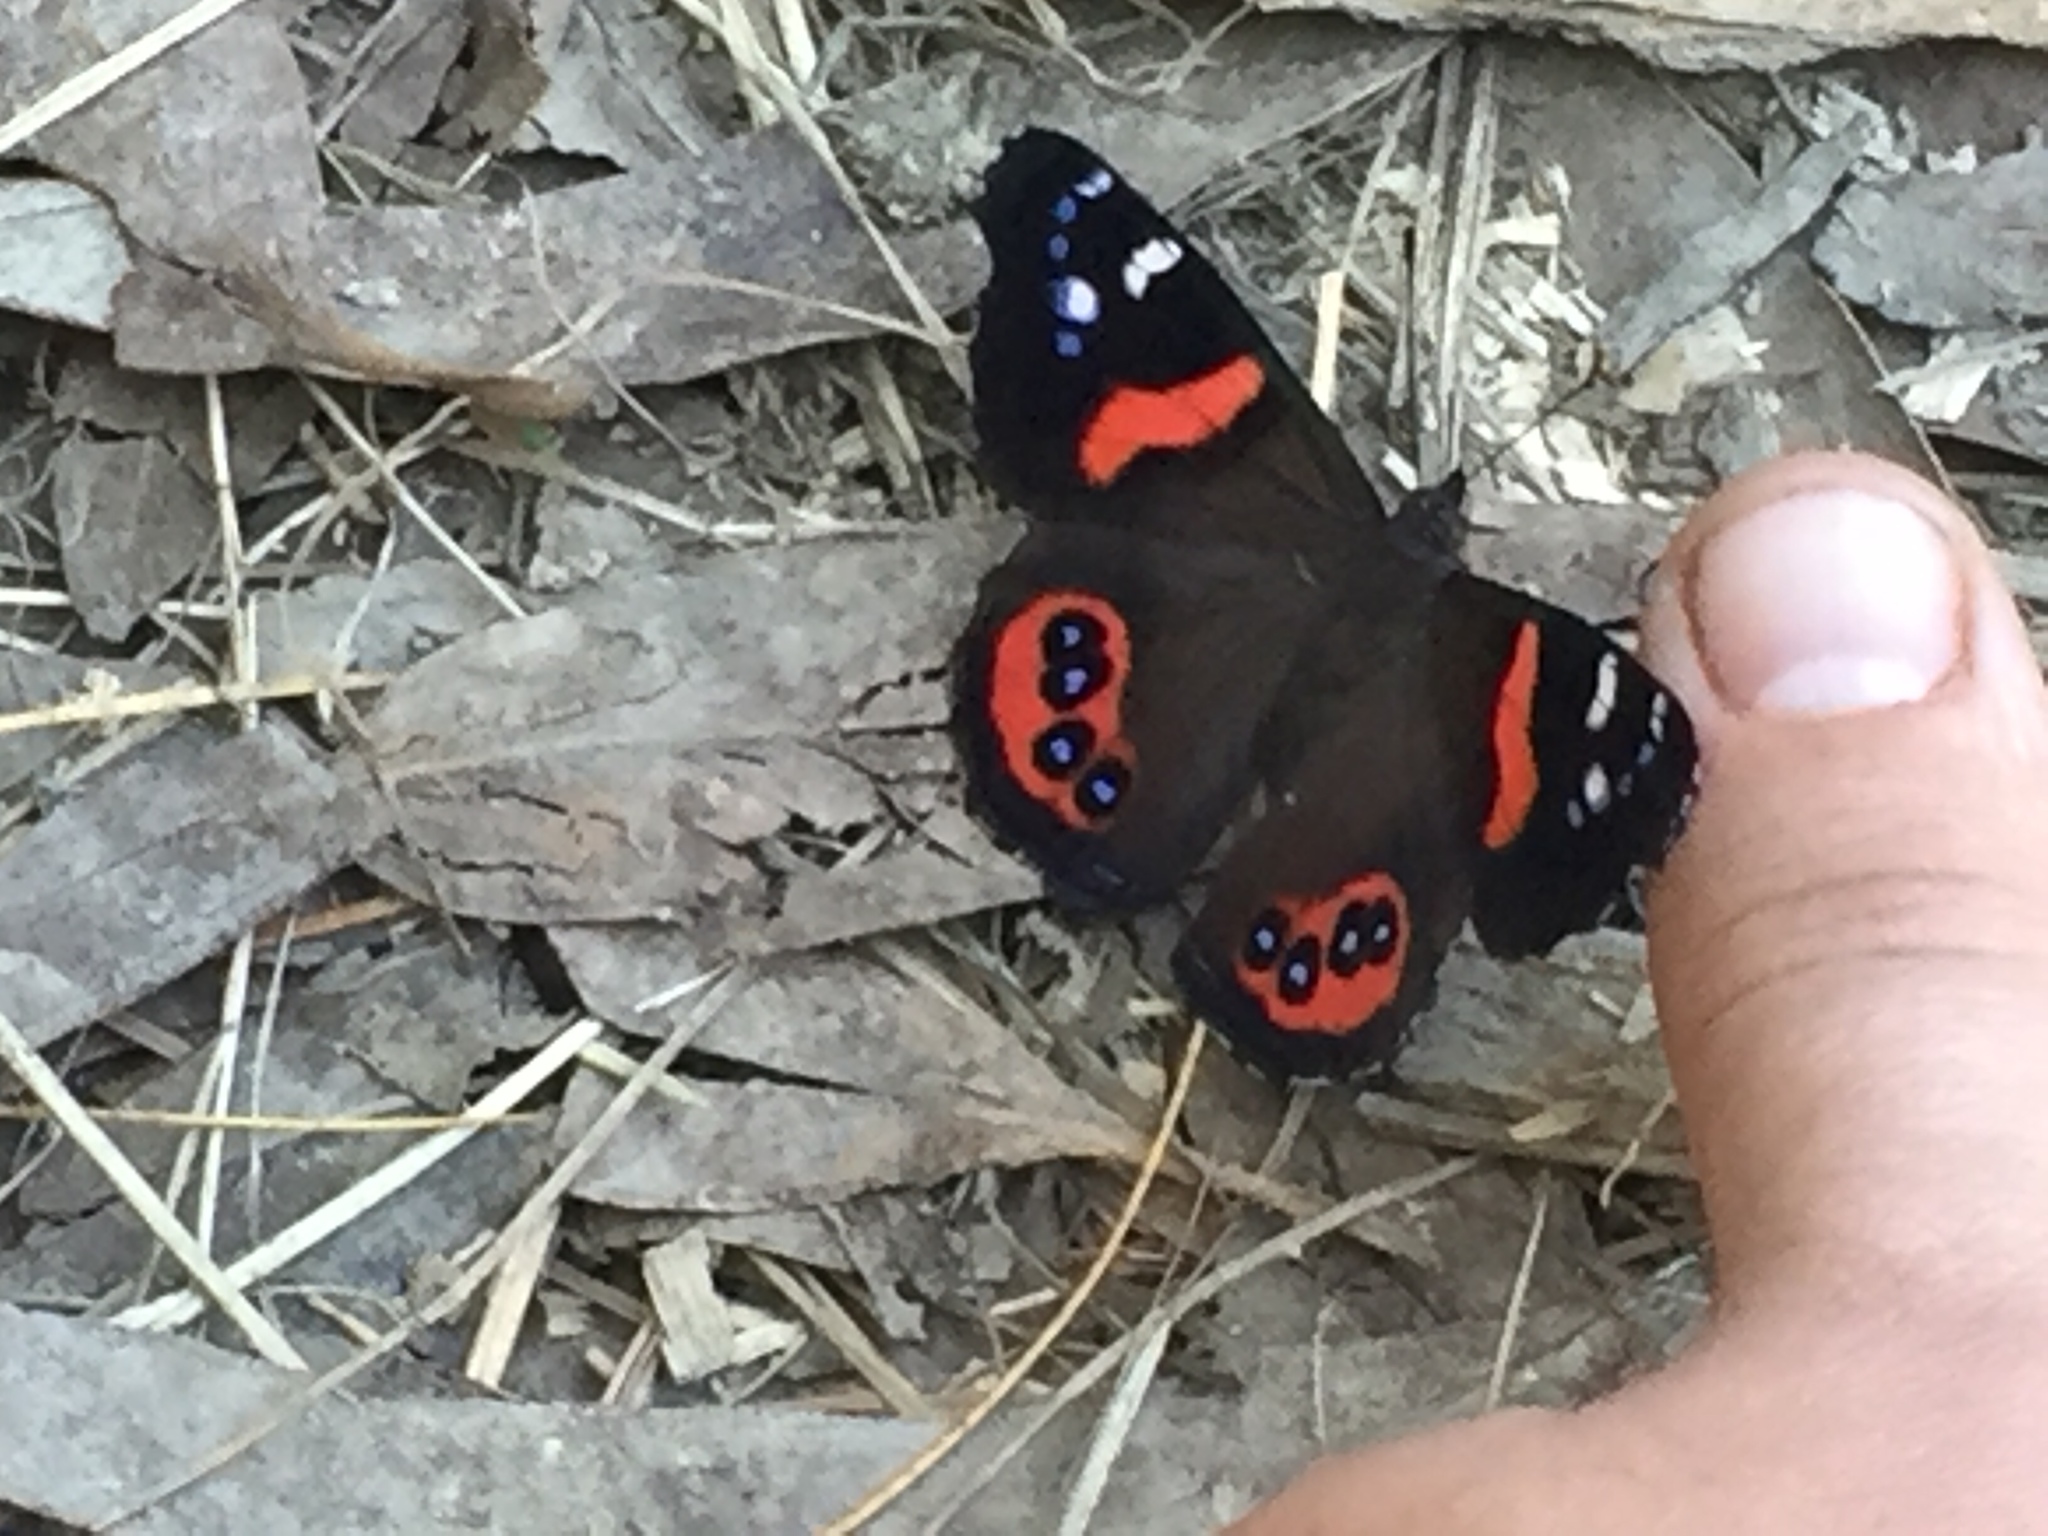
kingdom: Animalia
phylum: Arthropoda
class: Insecta
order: Lepidoptera
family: Nymphalidae
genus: Vanessa
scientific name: Vanessa gonerilla
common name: New zealand red admiral
